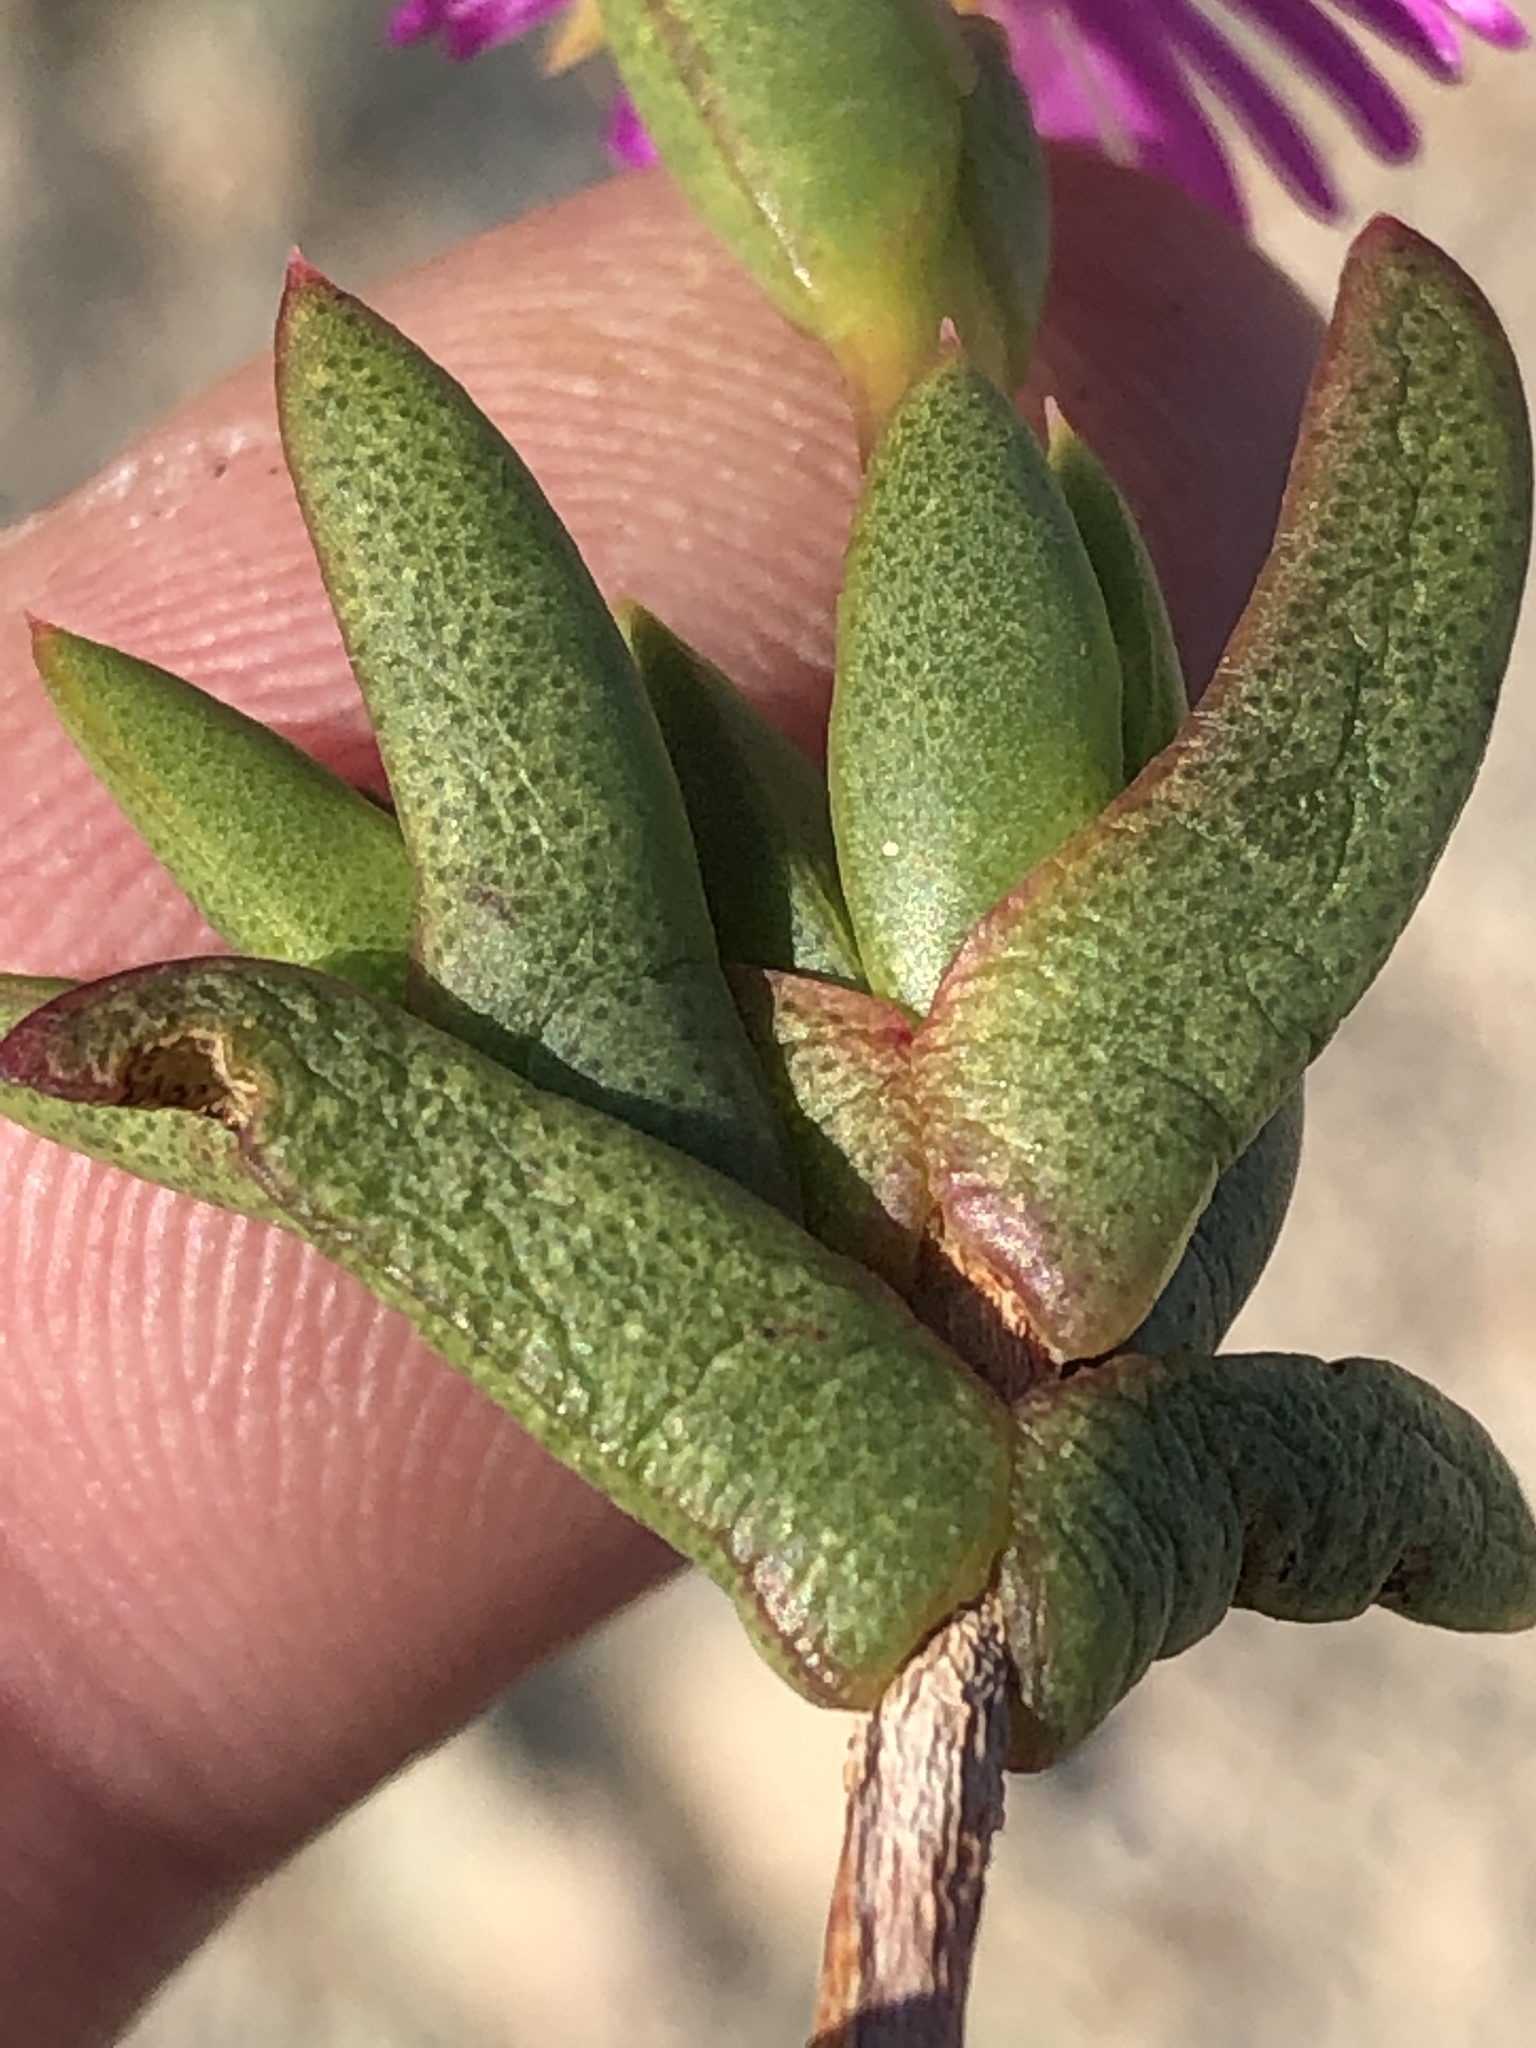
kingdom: Plantae
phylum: Tracheophyta
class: Magnoliopsida
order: Caryophyllales
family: Aizoaceae
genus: Esterhuysenia
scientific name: Esterhuysenia knysnana
